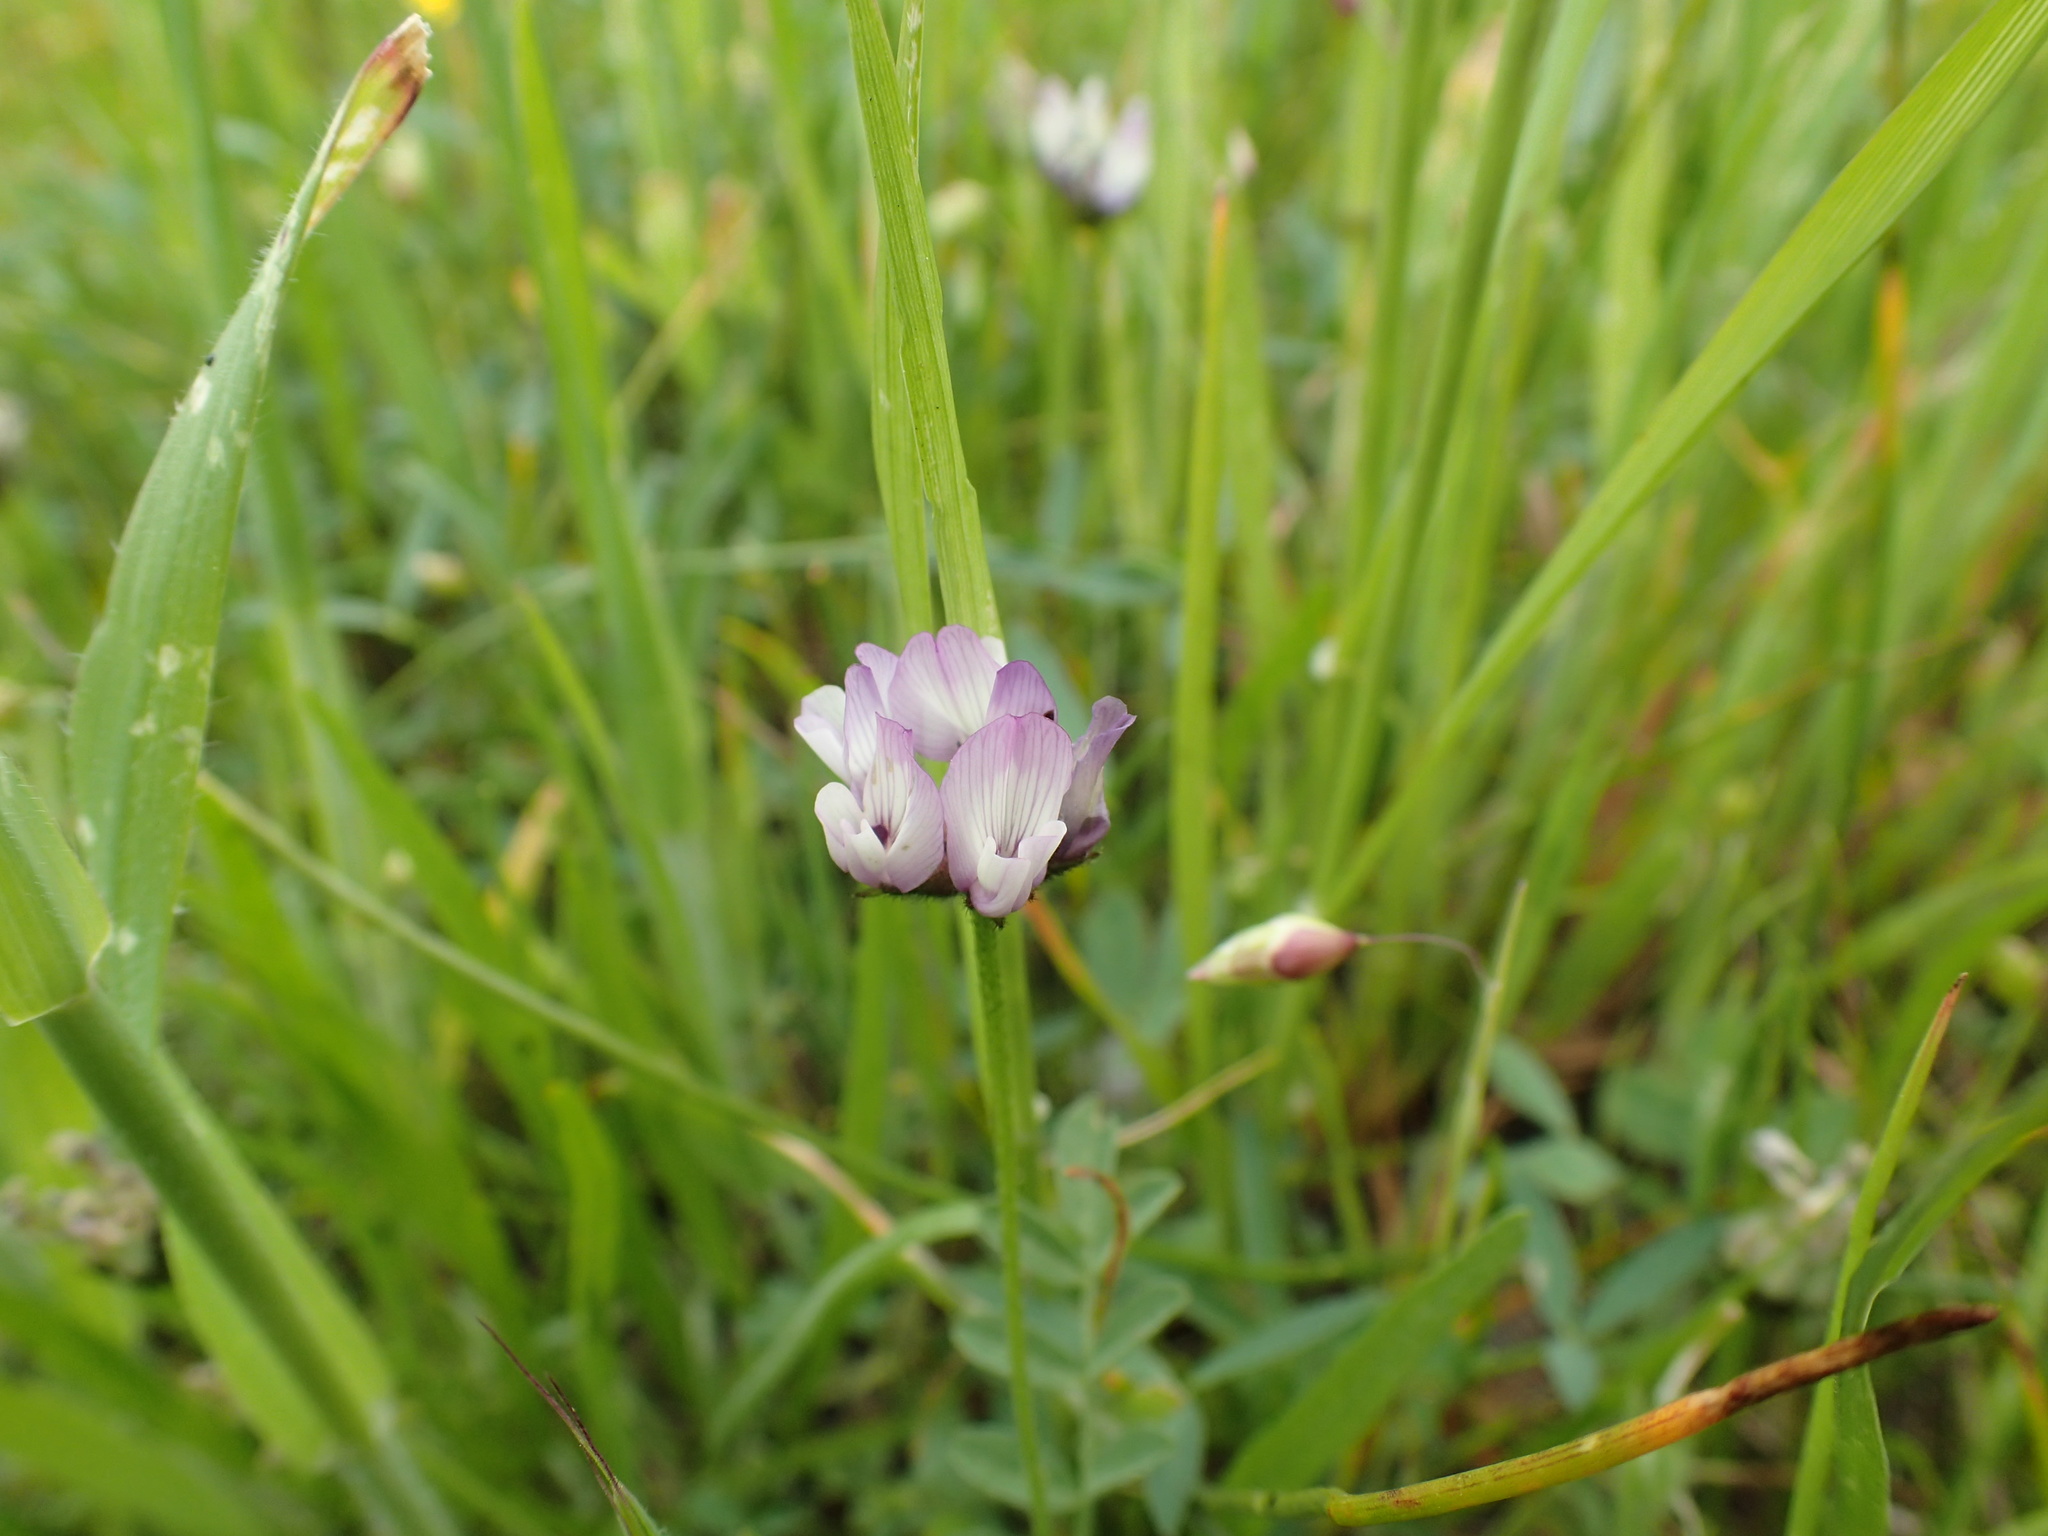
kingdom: Plantae
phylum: Tracheophyta
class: Magnoliopsida
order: Fabales
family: Fabaceae
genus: Astragalus
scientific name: Astragalus breweri
